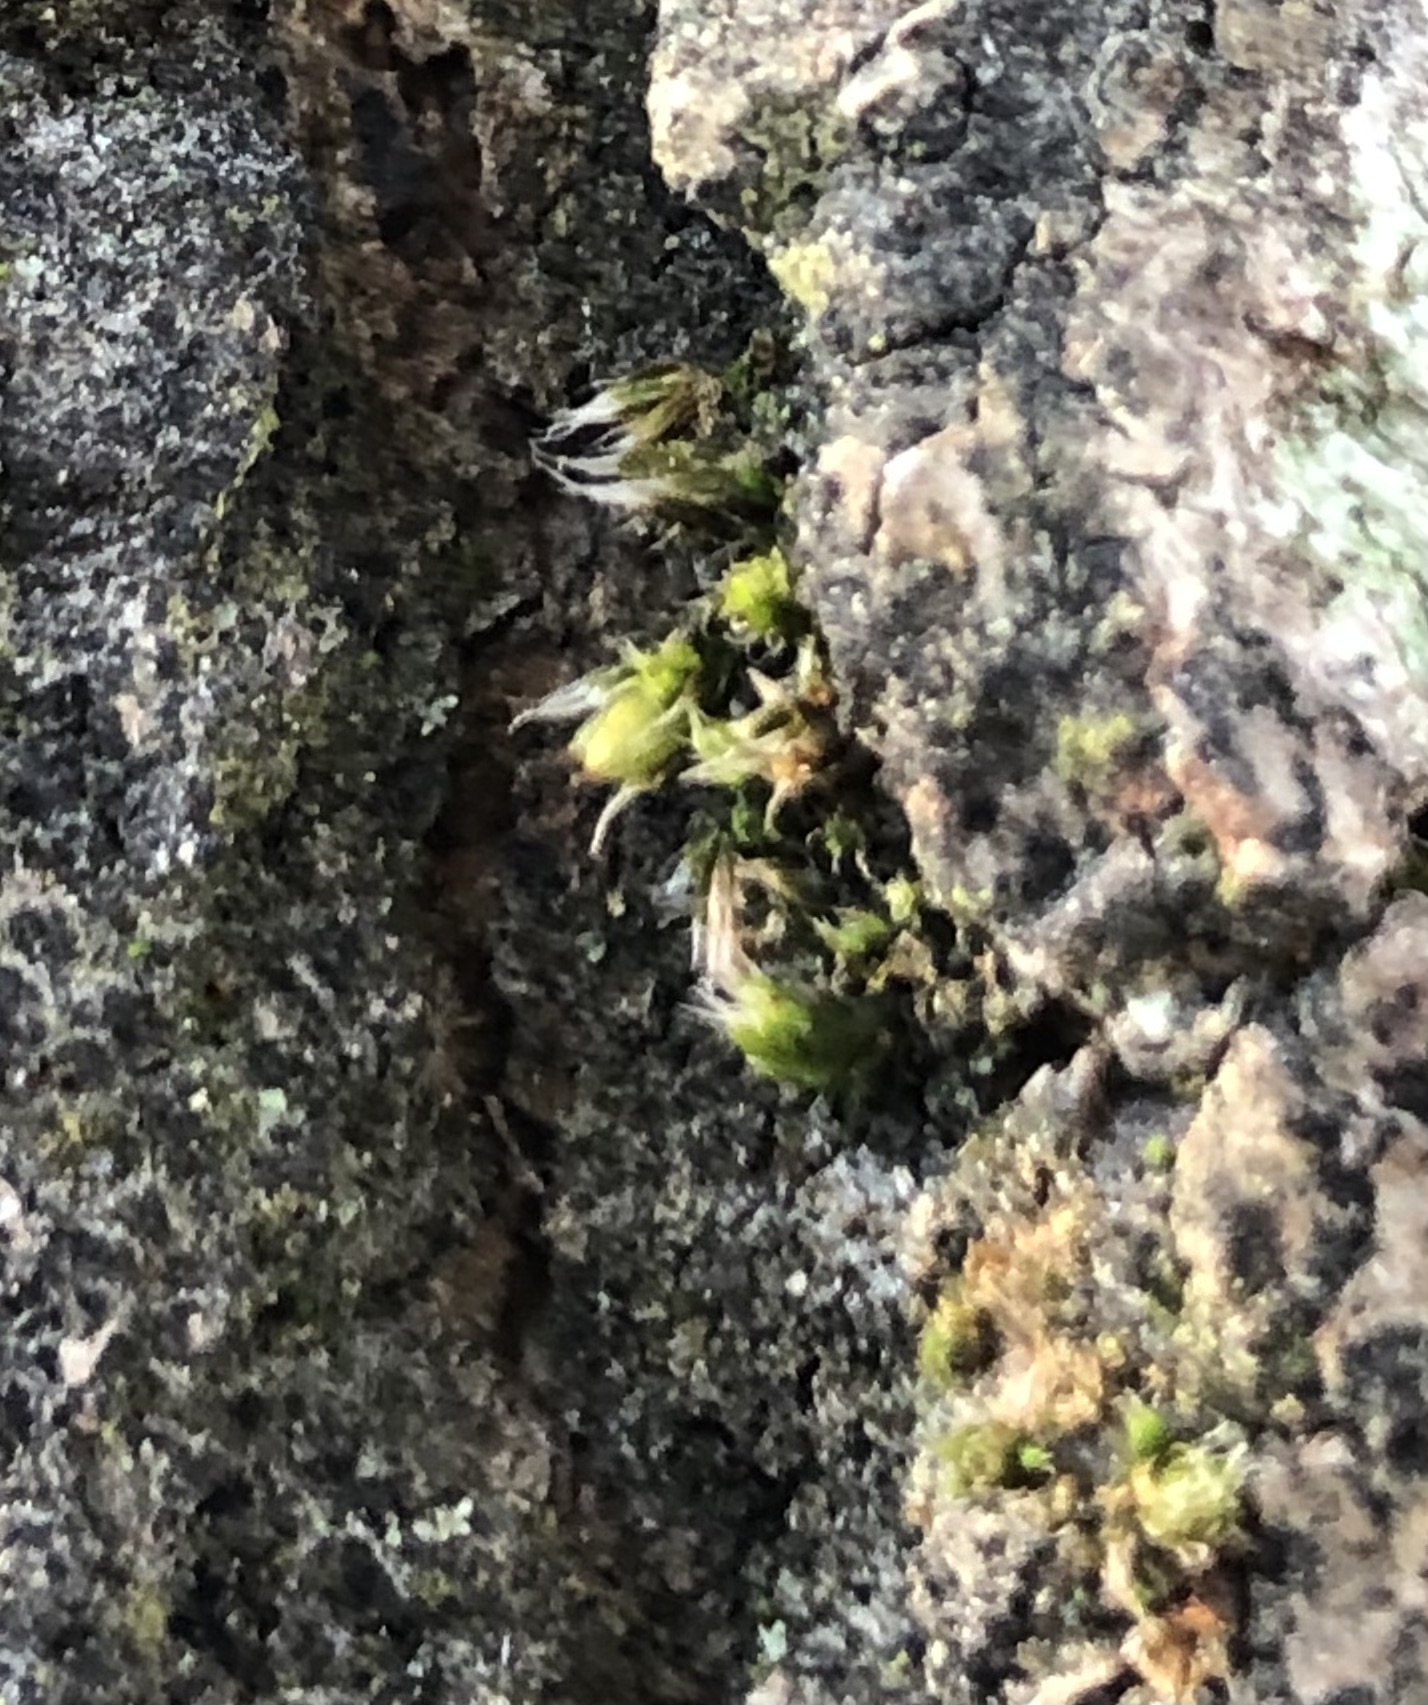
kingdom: Plantae
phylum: Bryophyta
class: Bryopsida
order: Orthotrichales
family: Orthotrichaceae
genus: Orthotrichum
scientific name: Orthotrichum diaphanum
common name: White-tipped bristle-moss
